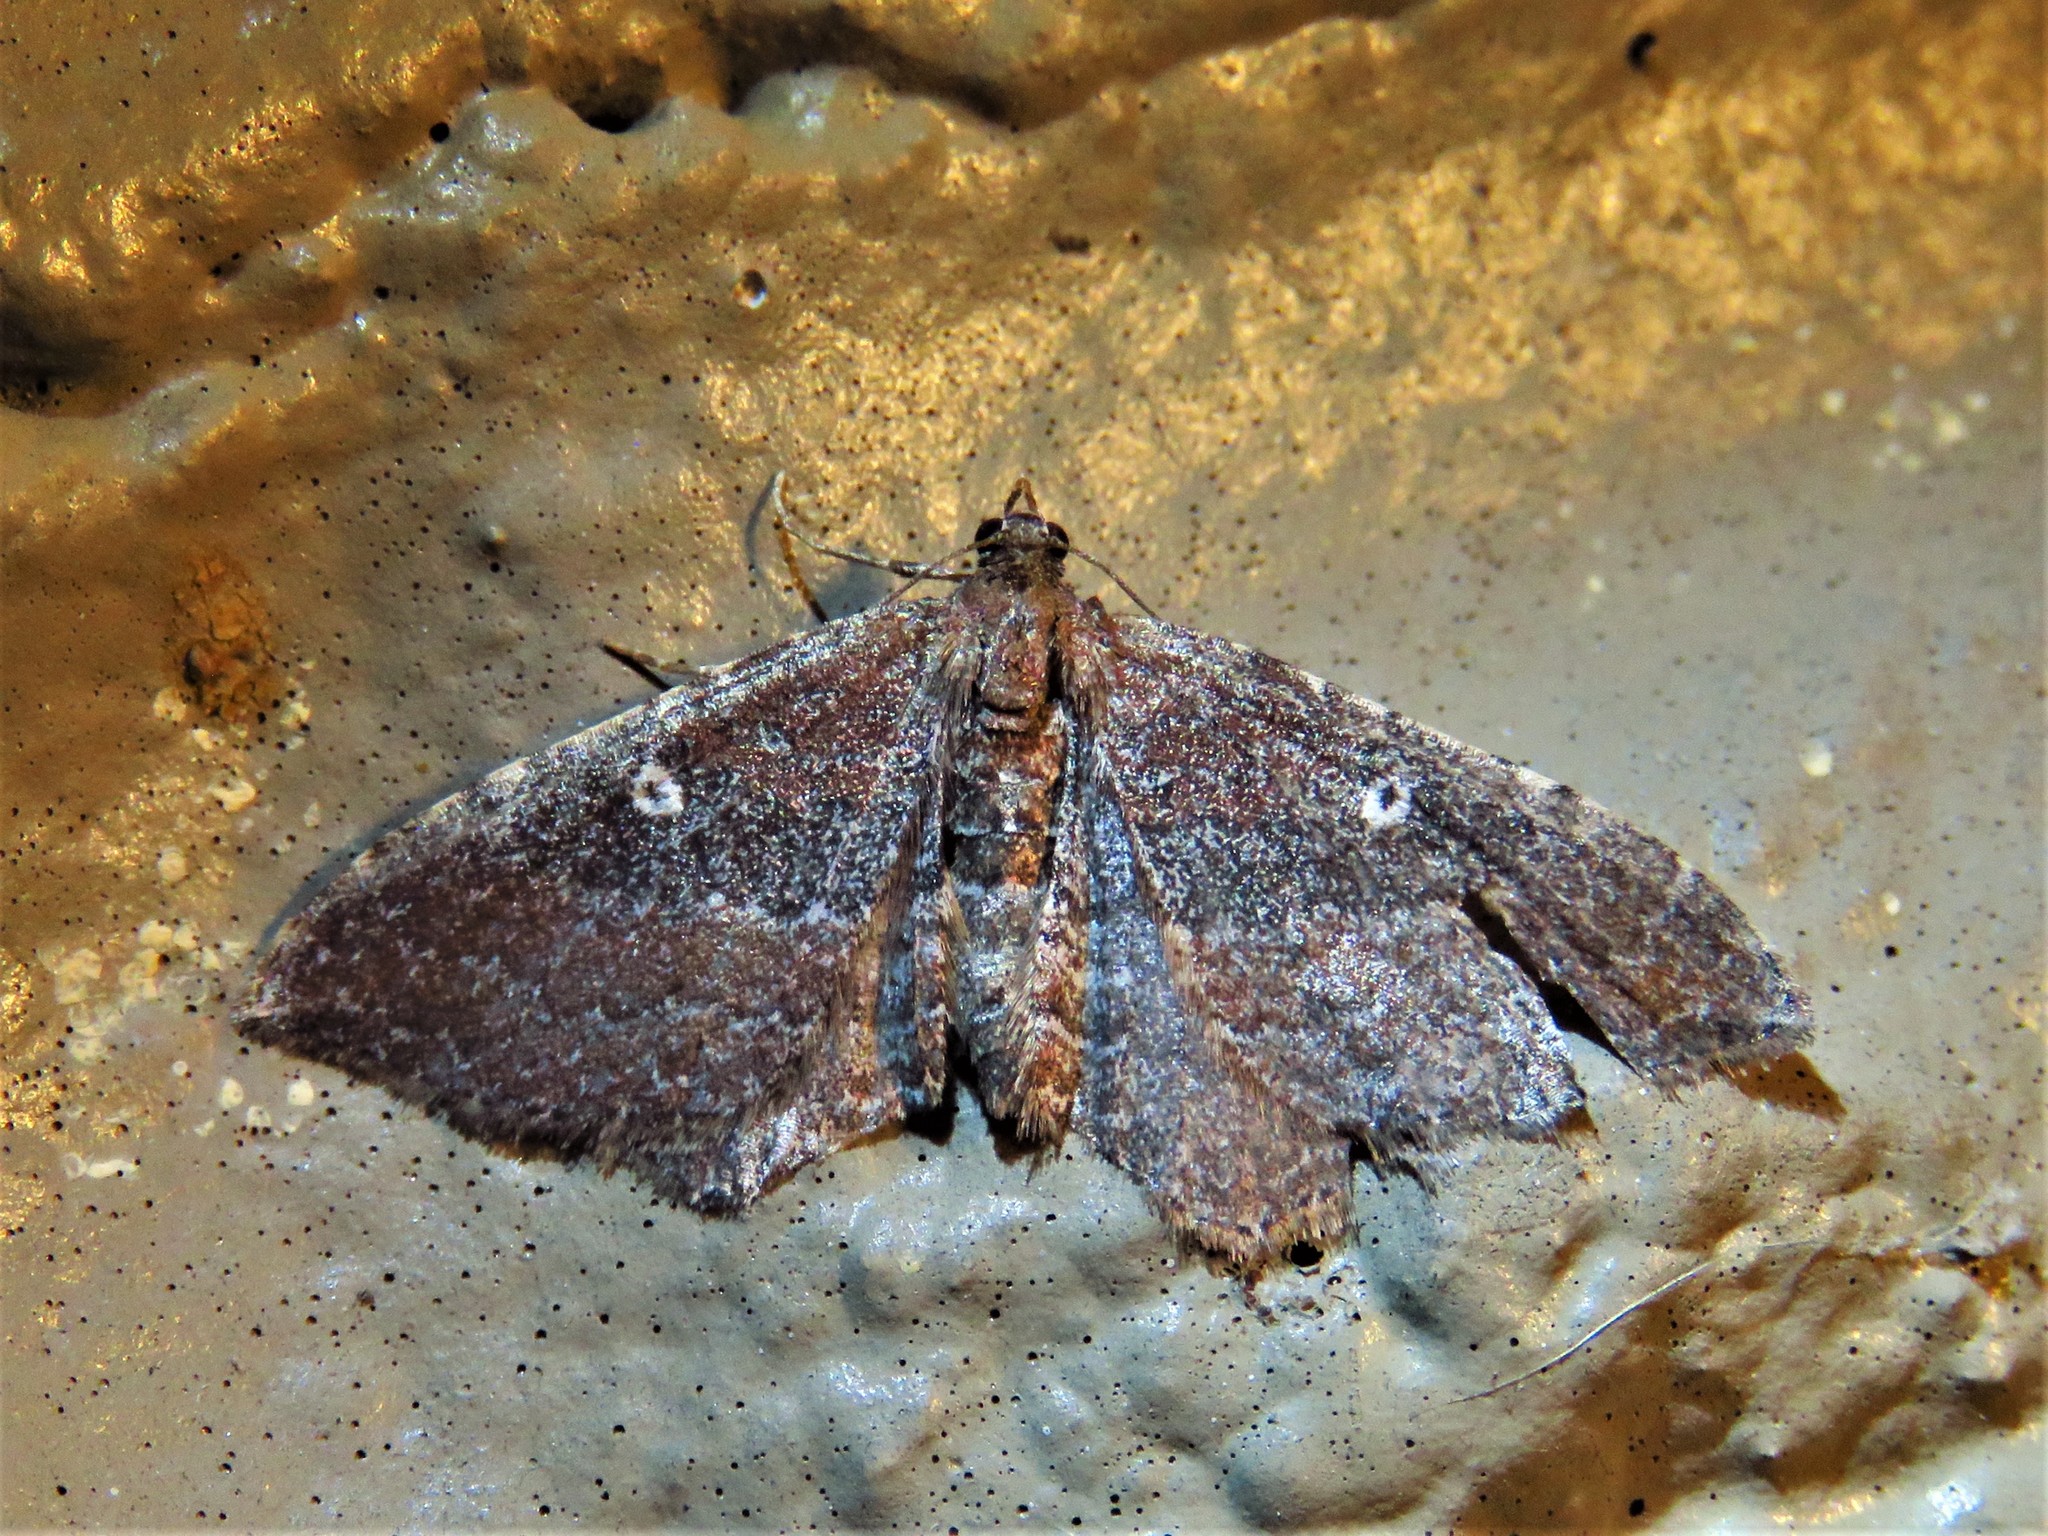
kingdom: Animalia
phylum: Arthropoda
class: Insecta
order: Lepidoptera
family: Geometridae
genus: Orthonama
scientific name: Orthonama obstipata
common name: The gem
